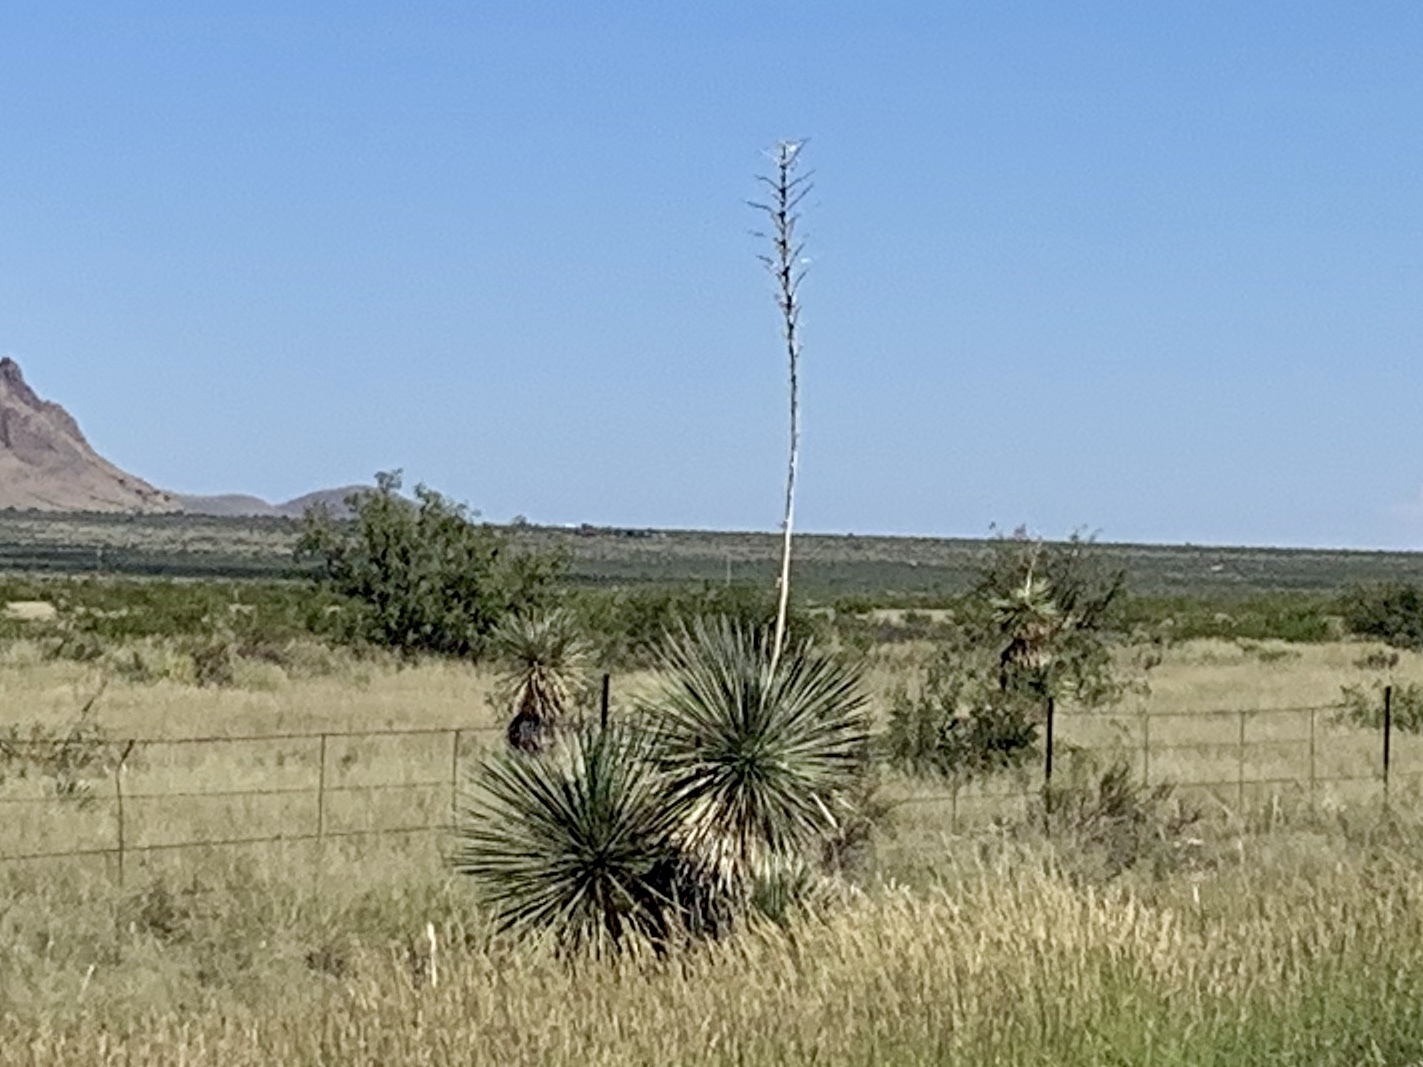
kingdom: Plantae
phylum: Tracheophyta
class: Liliopsida
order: Asparagales
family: Asparagaceae
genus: Yucca
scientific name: Yucca elata
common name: Palmella
